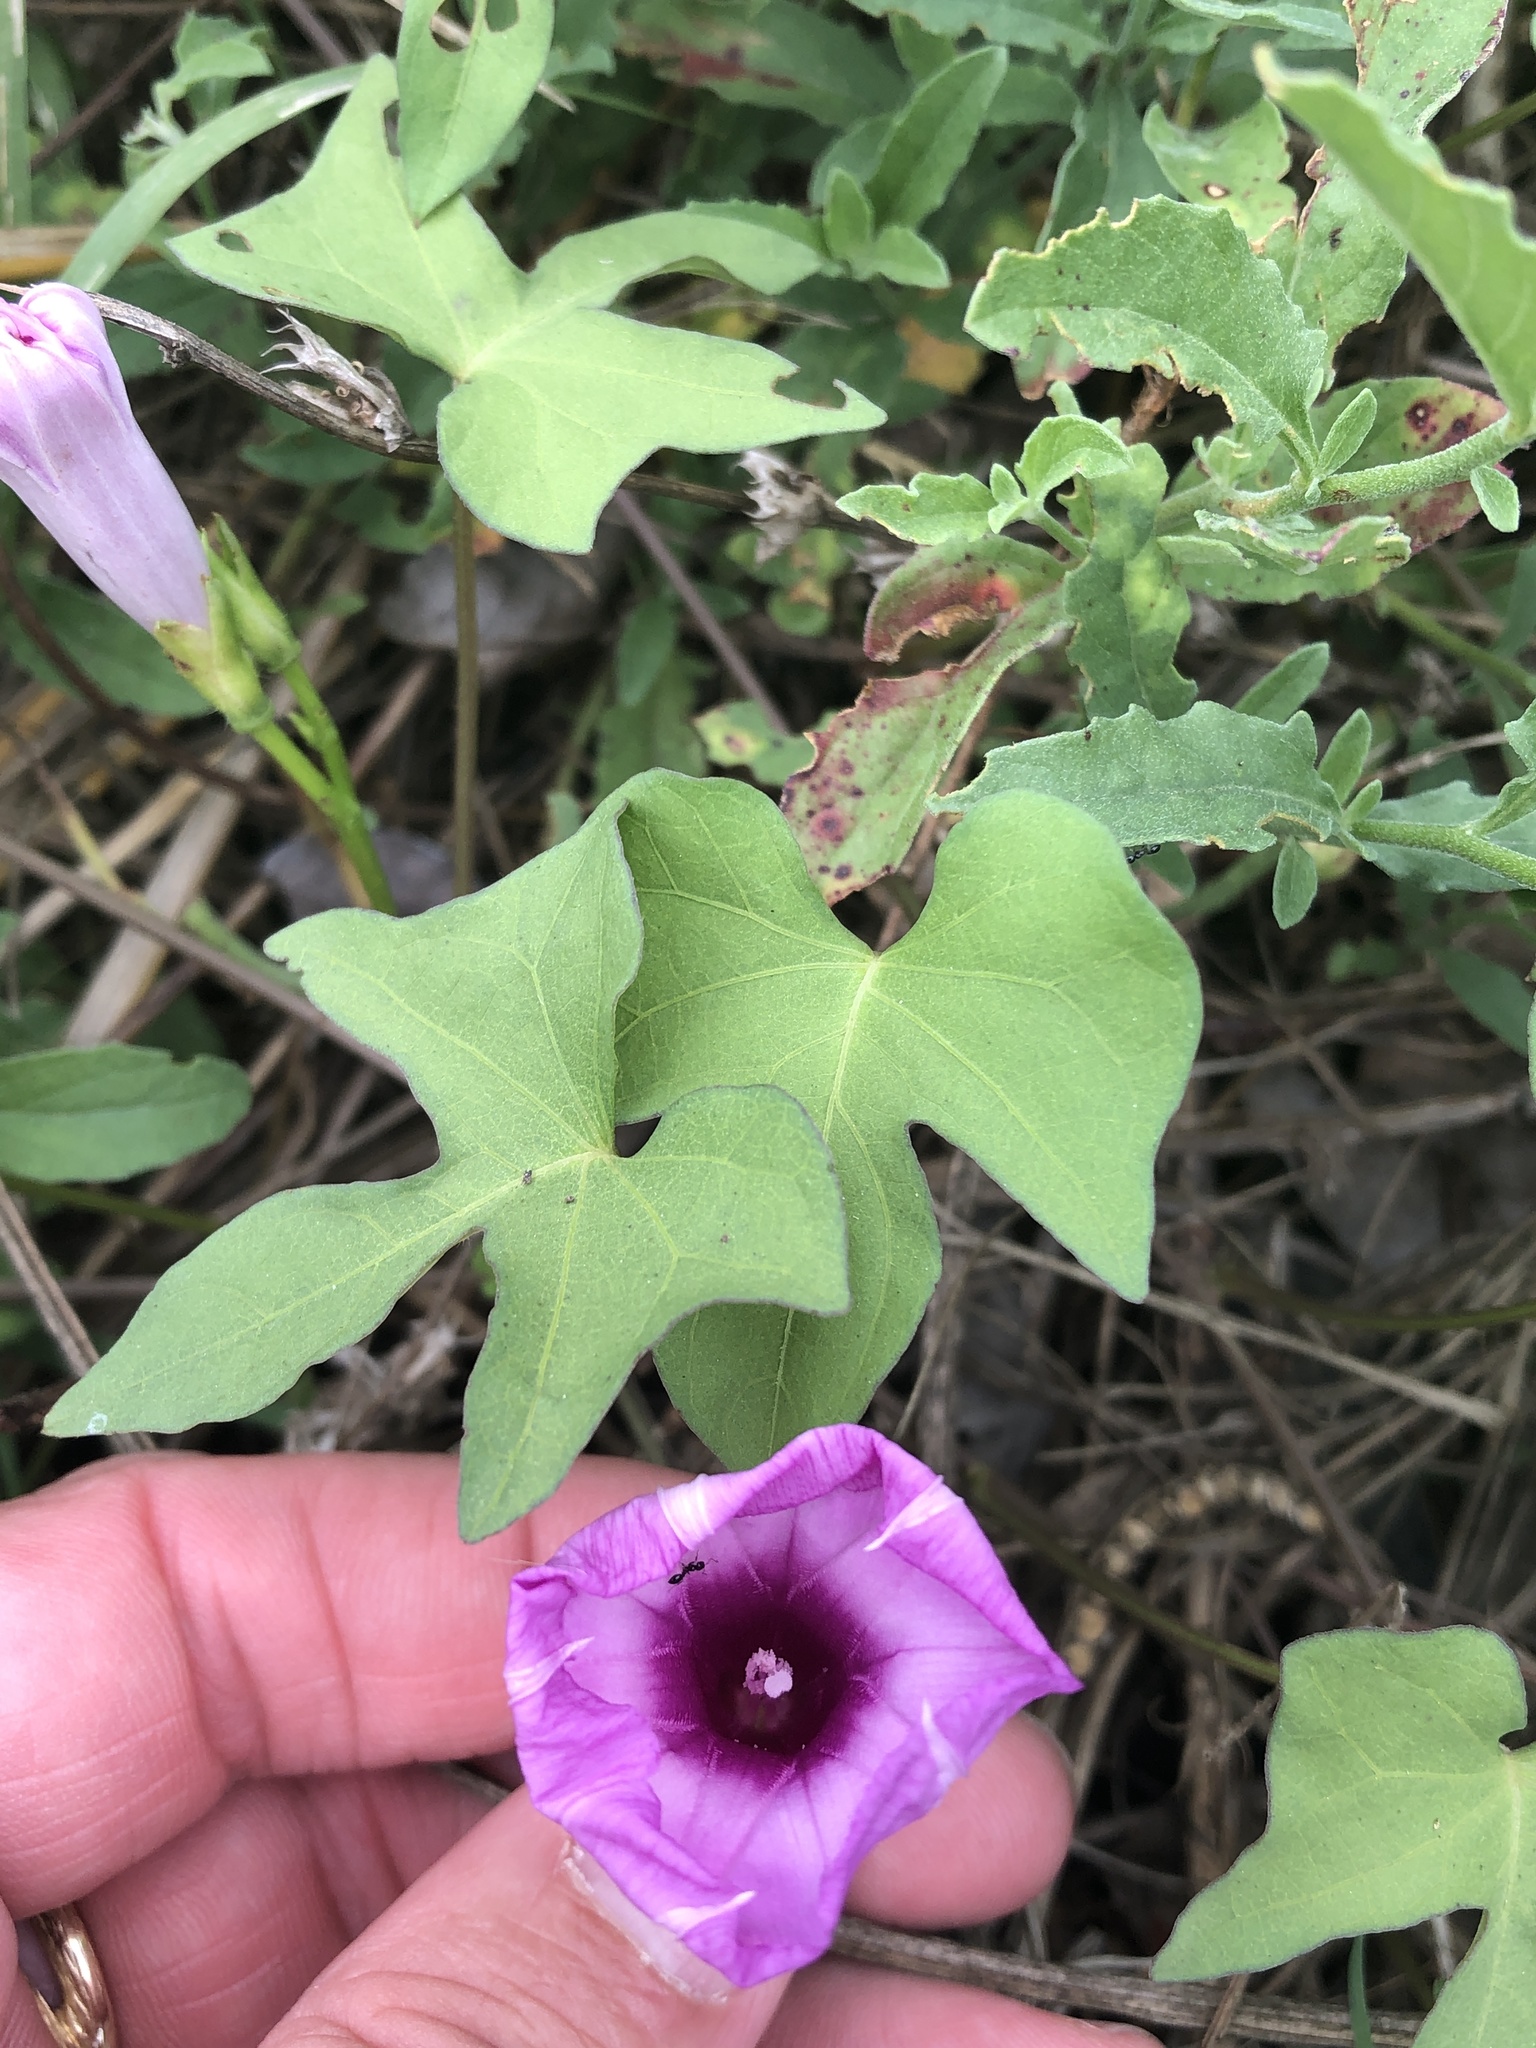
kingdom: Plantae
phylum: Tracheophyta
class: Magnoliopsida
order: Solanales
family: Convolvulaceae
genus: Ipomoea
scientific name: Ipomoea cordatotriloba
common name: Cotton morning glory
